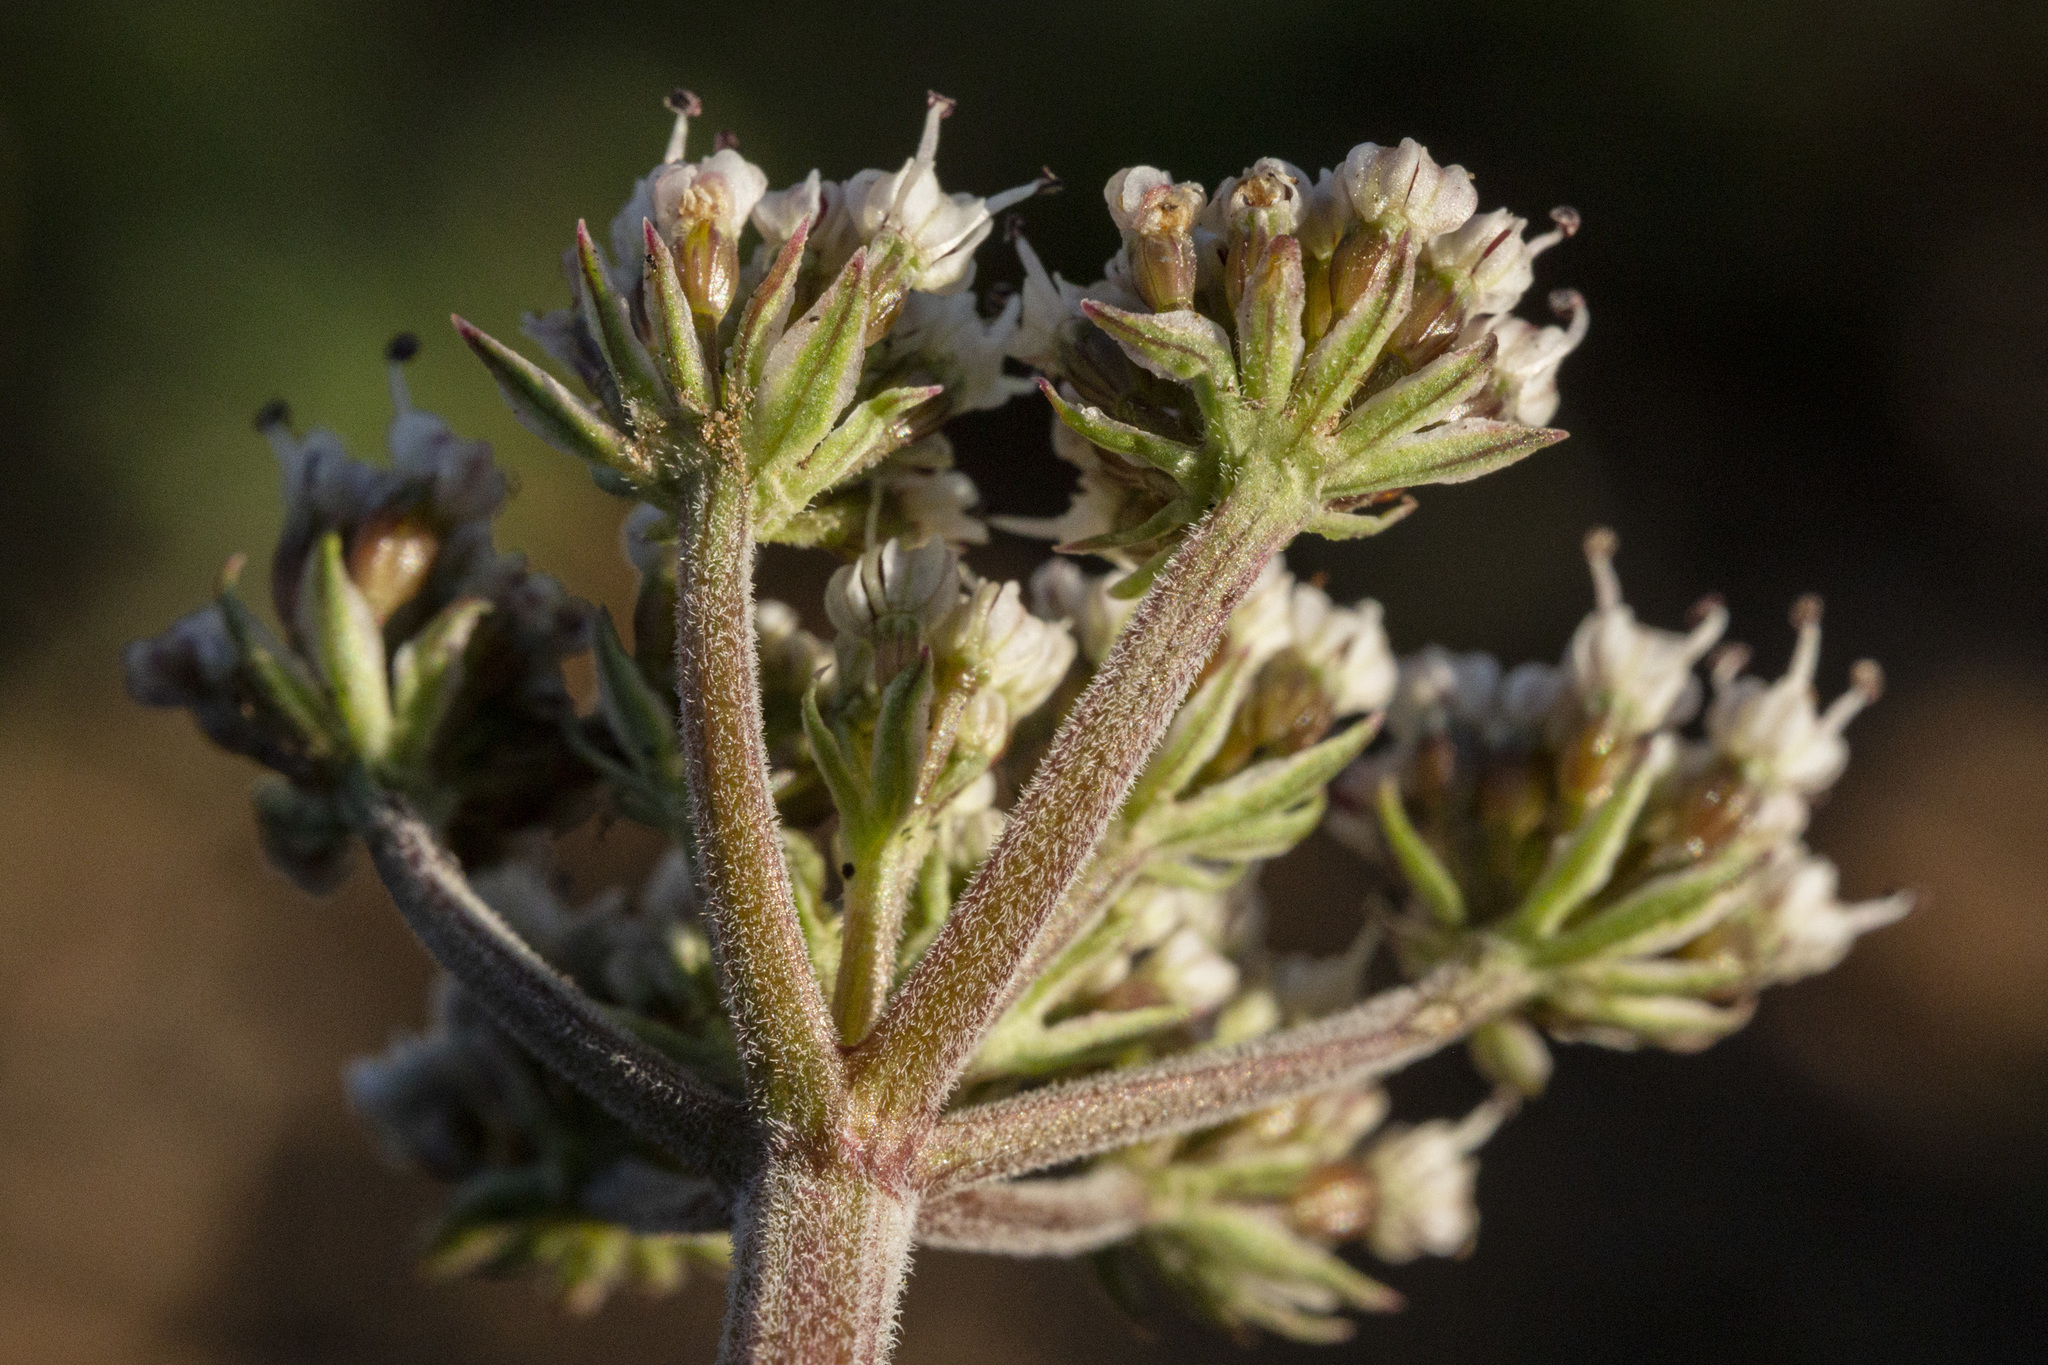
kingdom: Plantae
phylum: Tracheophyta
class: Magnoliopsida
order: Apiales
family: Apiaceae
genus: Lomatium
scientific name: Lomatium orientale
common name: Eastern cous
